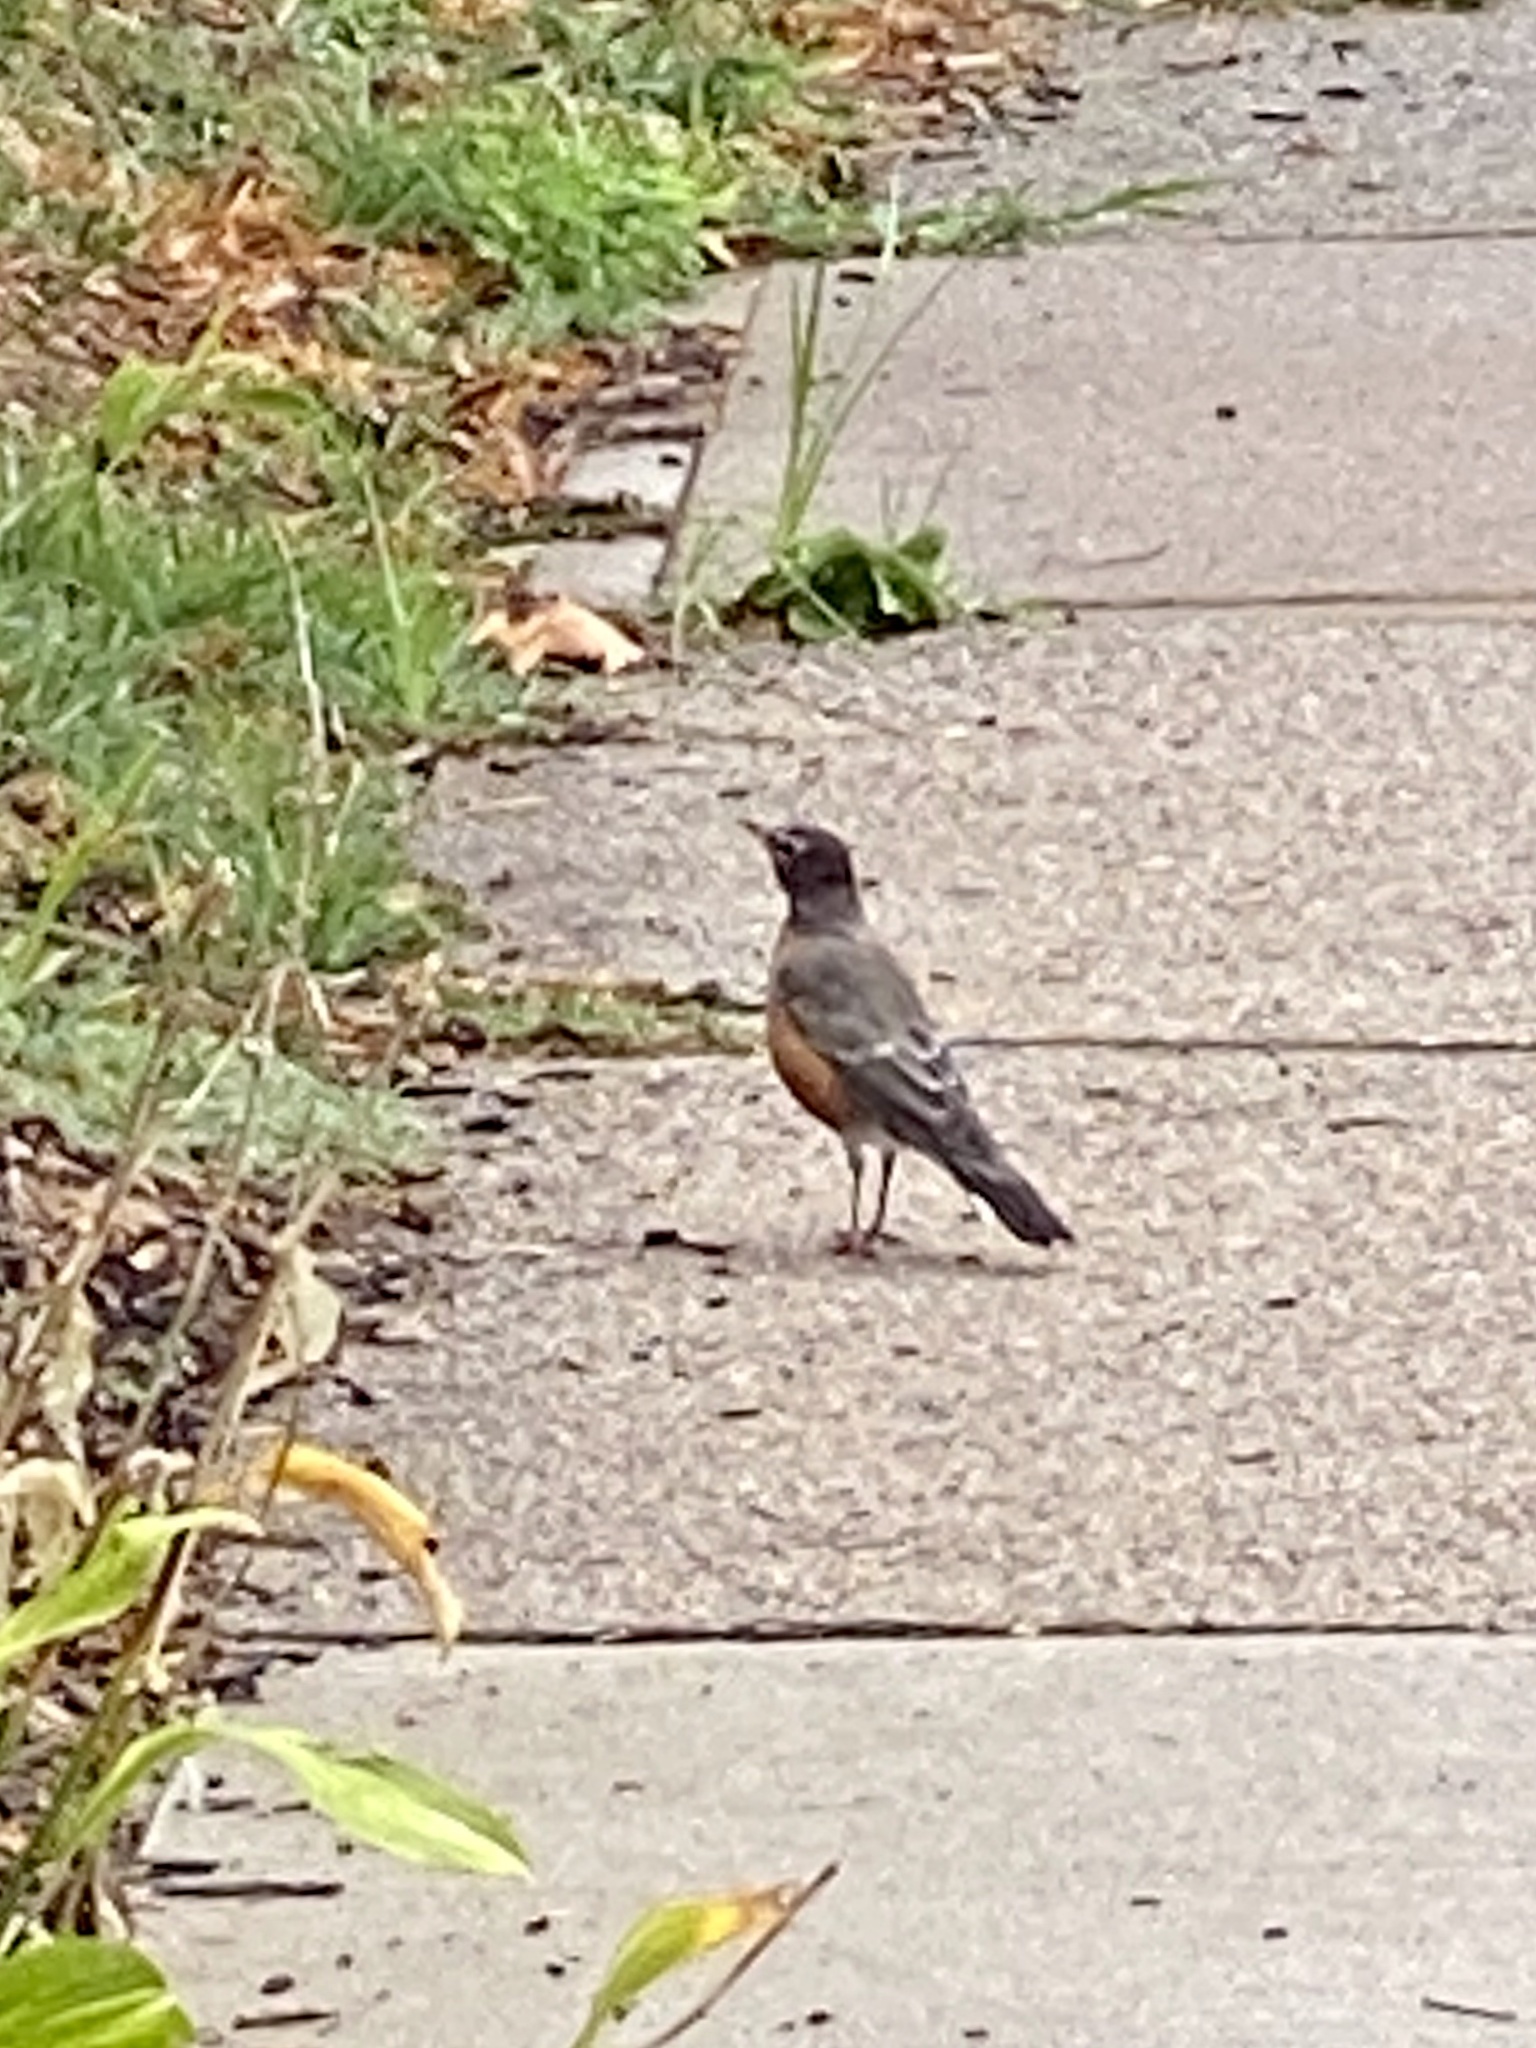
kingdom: Animalia
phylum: Chordata
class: Aves
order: Passeriformes
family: Turdidae
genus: Turdus
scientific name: Turdus migratorius
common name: American robin
